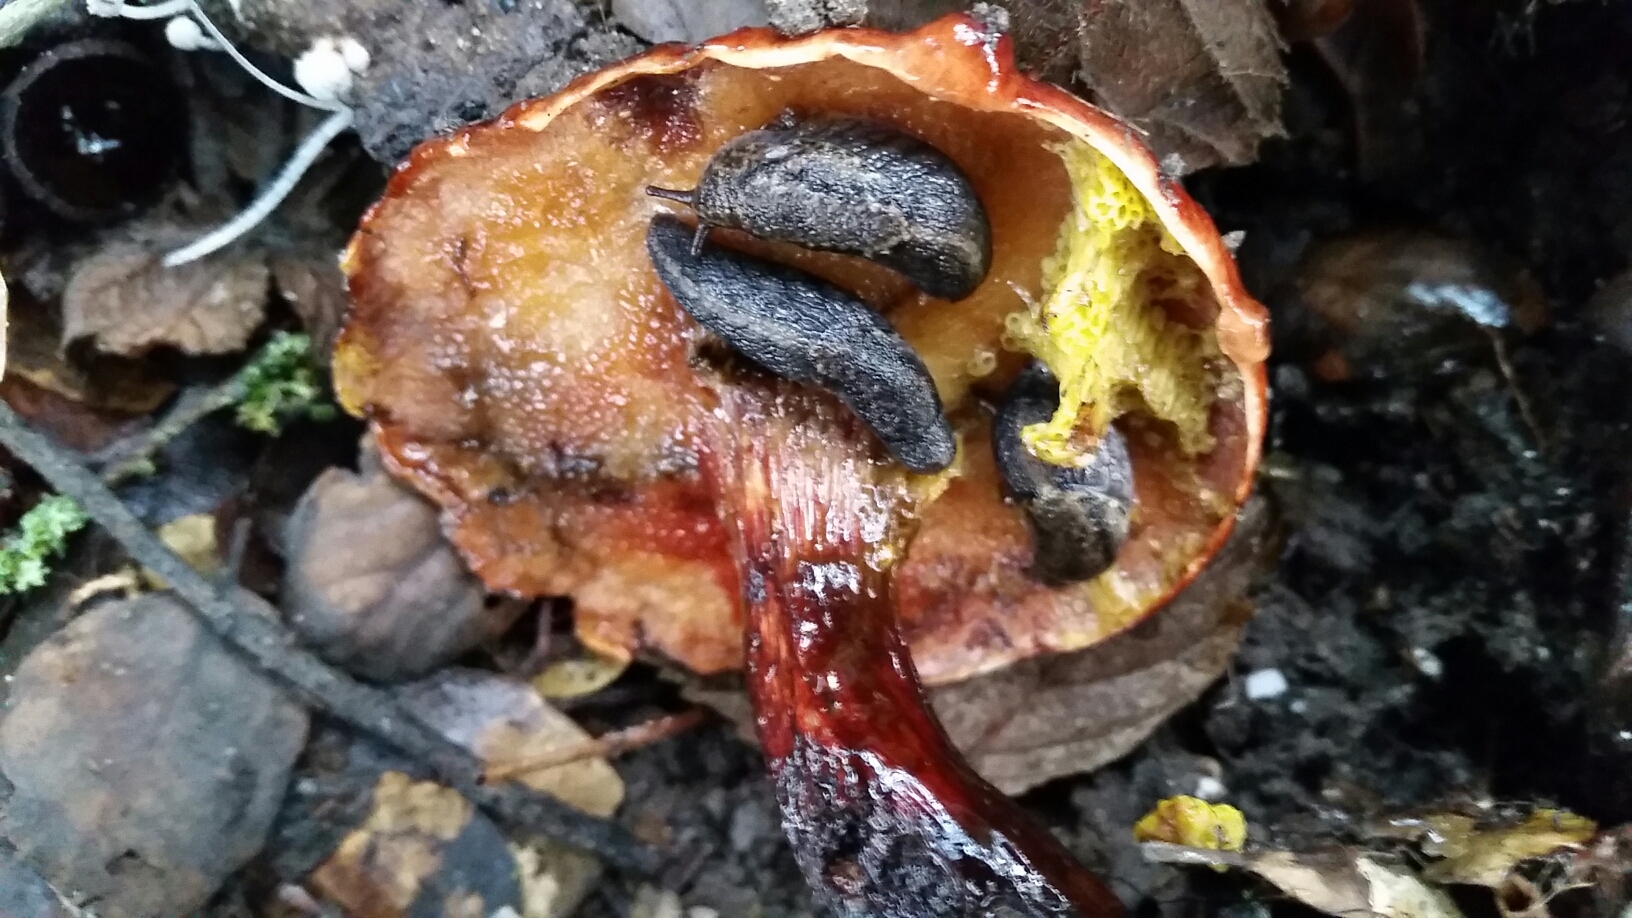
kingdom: Fungi
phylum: Basidiomycota
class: Agaricomycetes
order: Boletales
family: Boletaceae
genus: Aureoboletus
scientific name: Aureoboletus flaviporus
